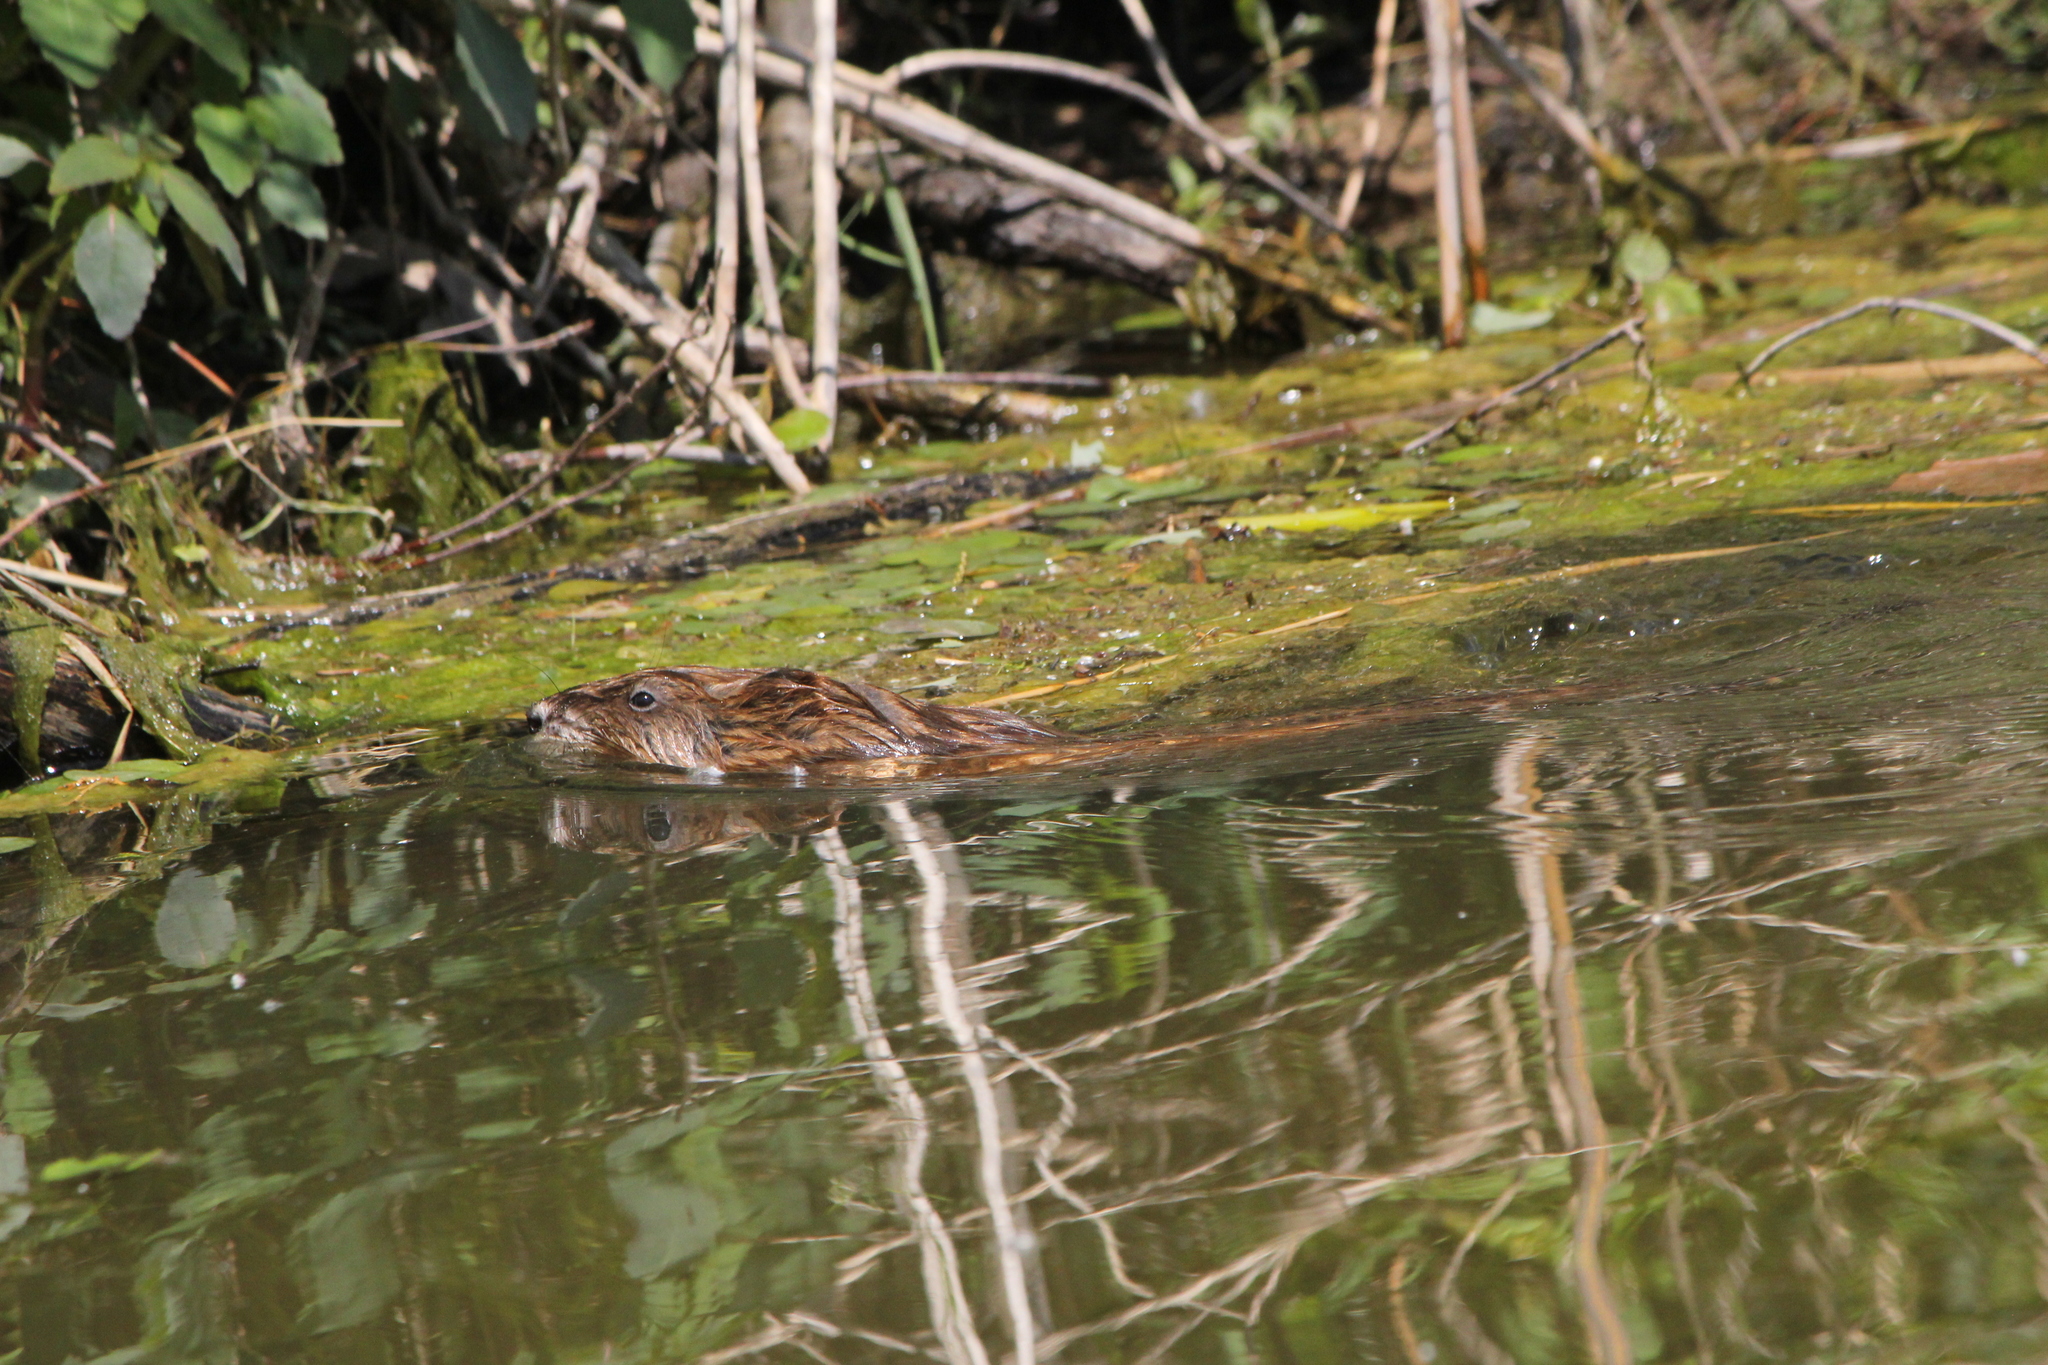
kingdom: Animalia
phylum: Chordata
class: Mammalia
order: Rodentia
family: Cricetidae
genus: Ondatra
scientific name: Ondatra zibethicus
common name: Muskrat
